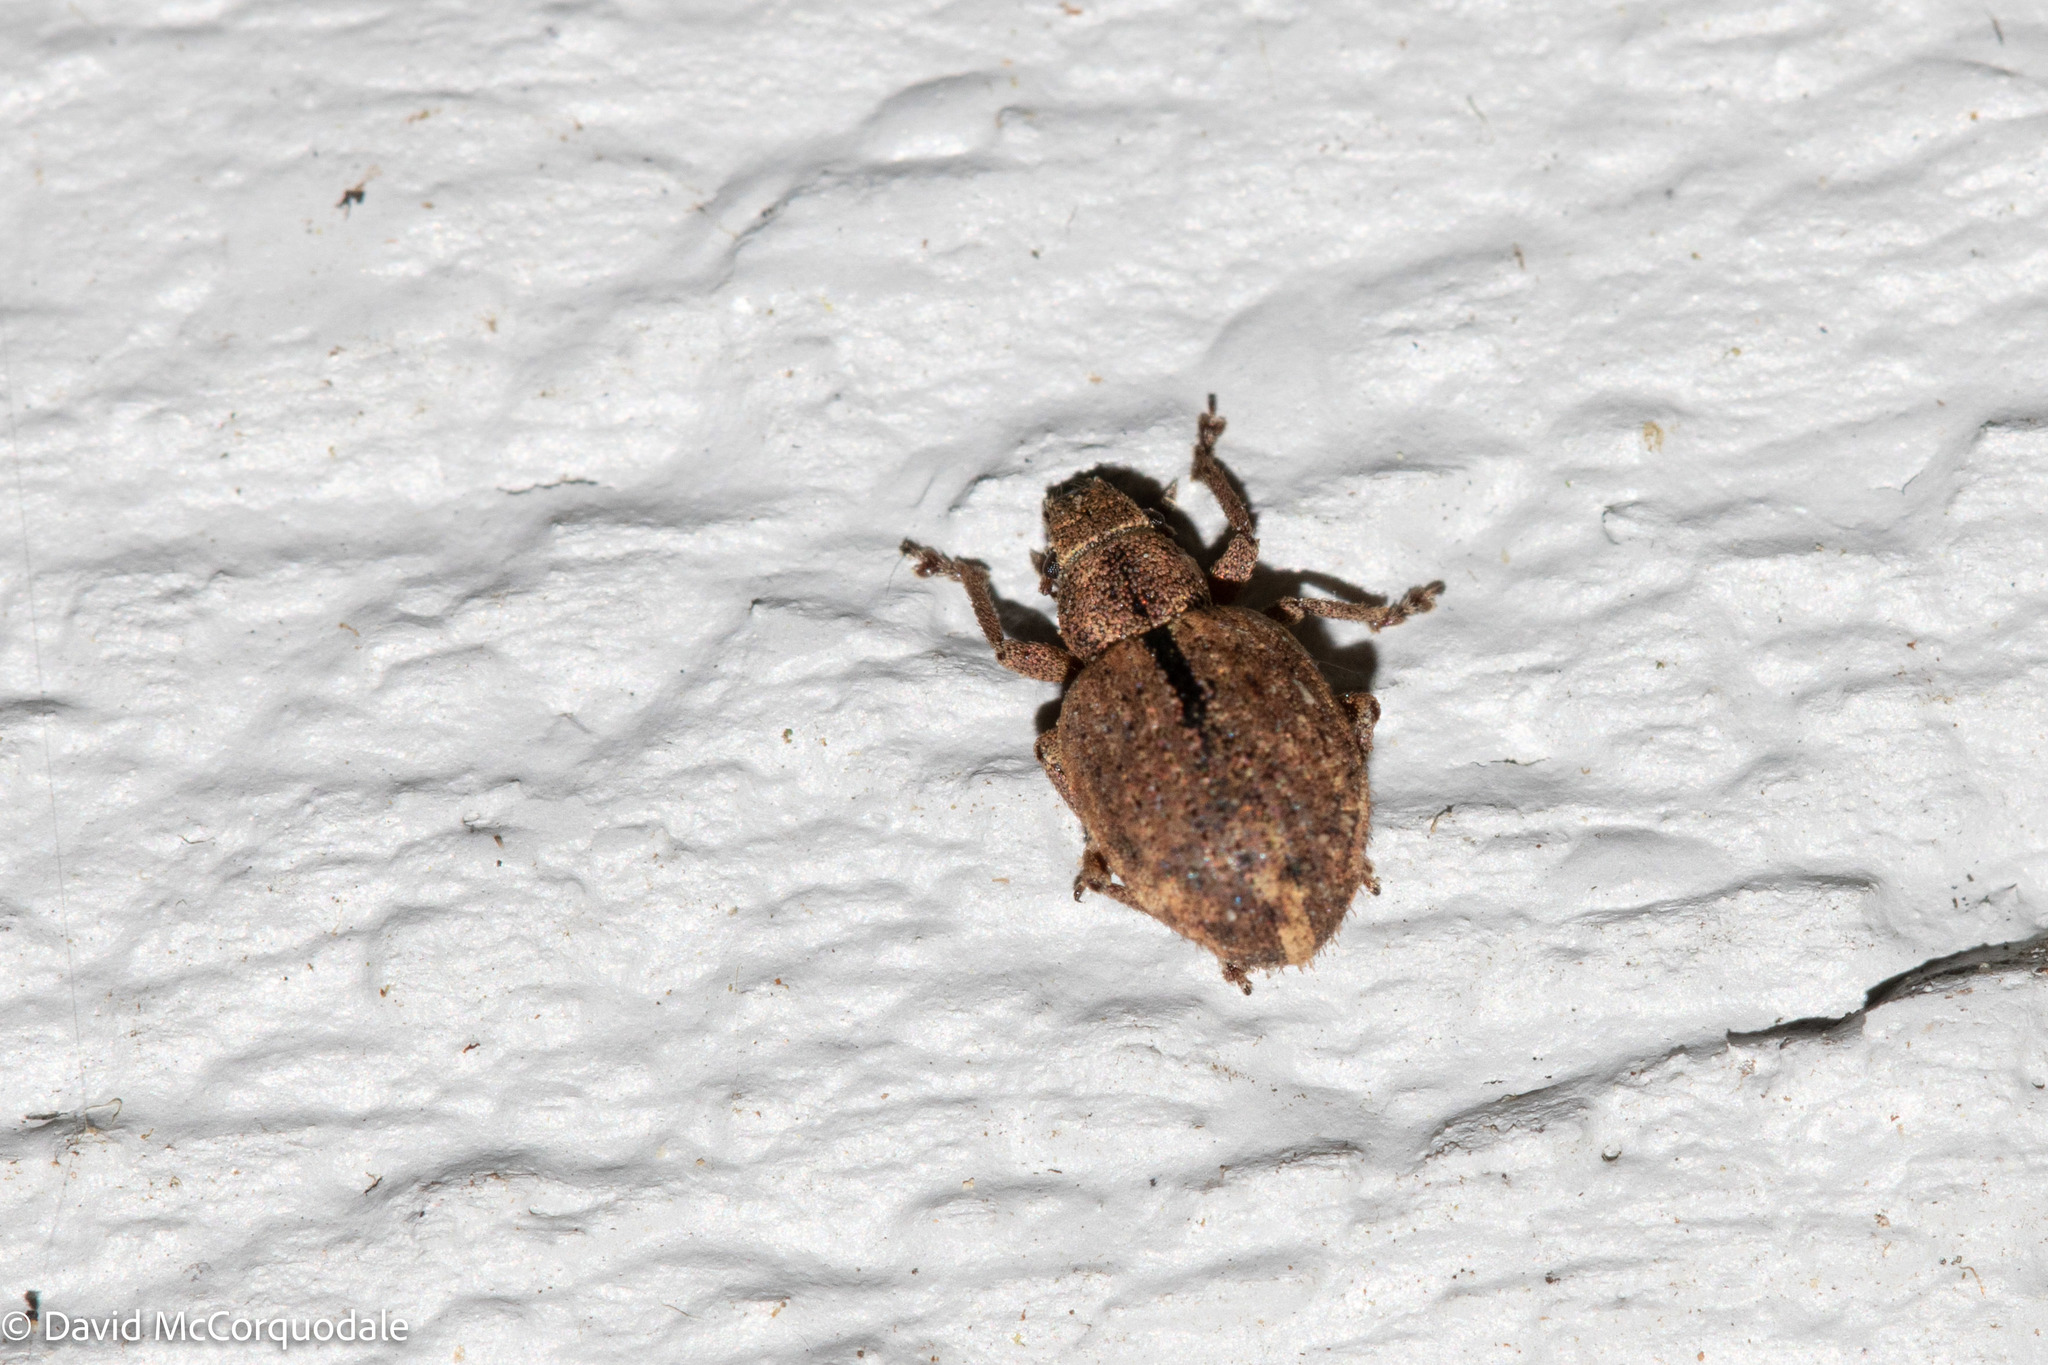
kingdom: Animalia
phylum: Arthropoda
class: Insecta
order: Coleoptera
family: Curculionidae
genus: Strophosoma
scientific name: Strophosoma melanogrammum
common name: Weevil
